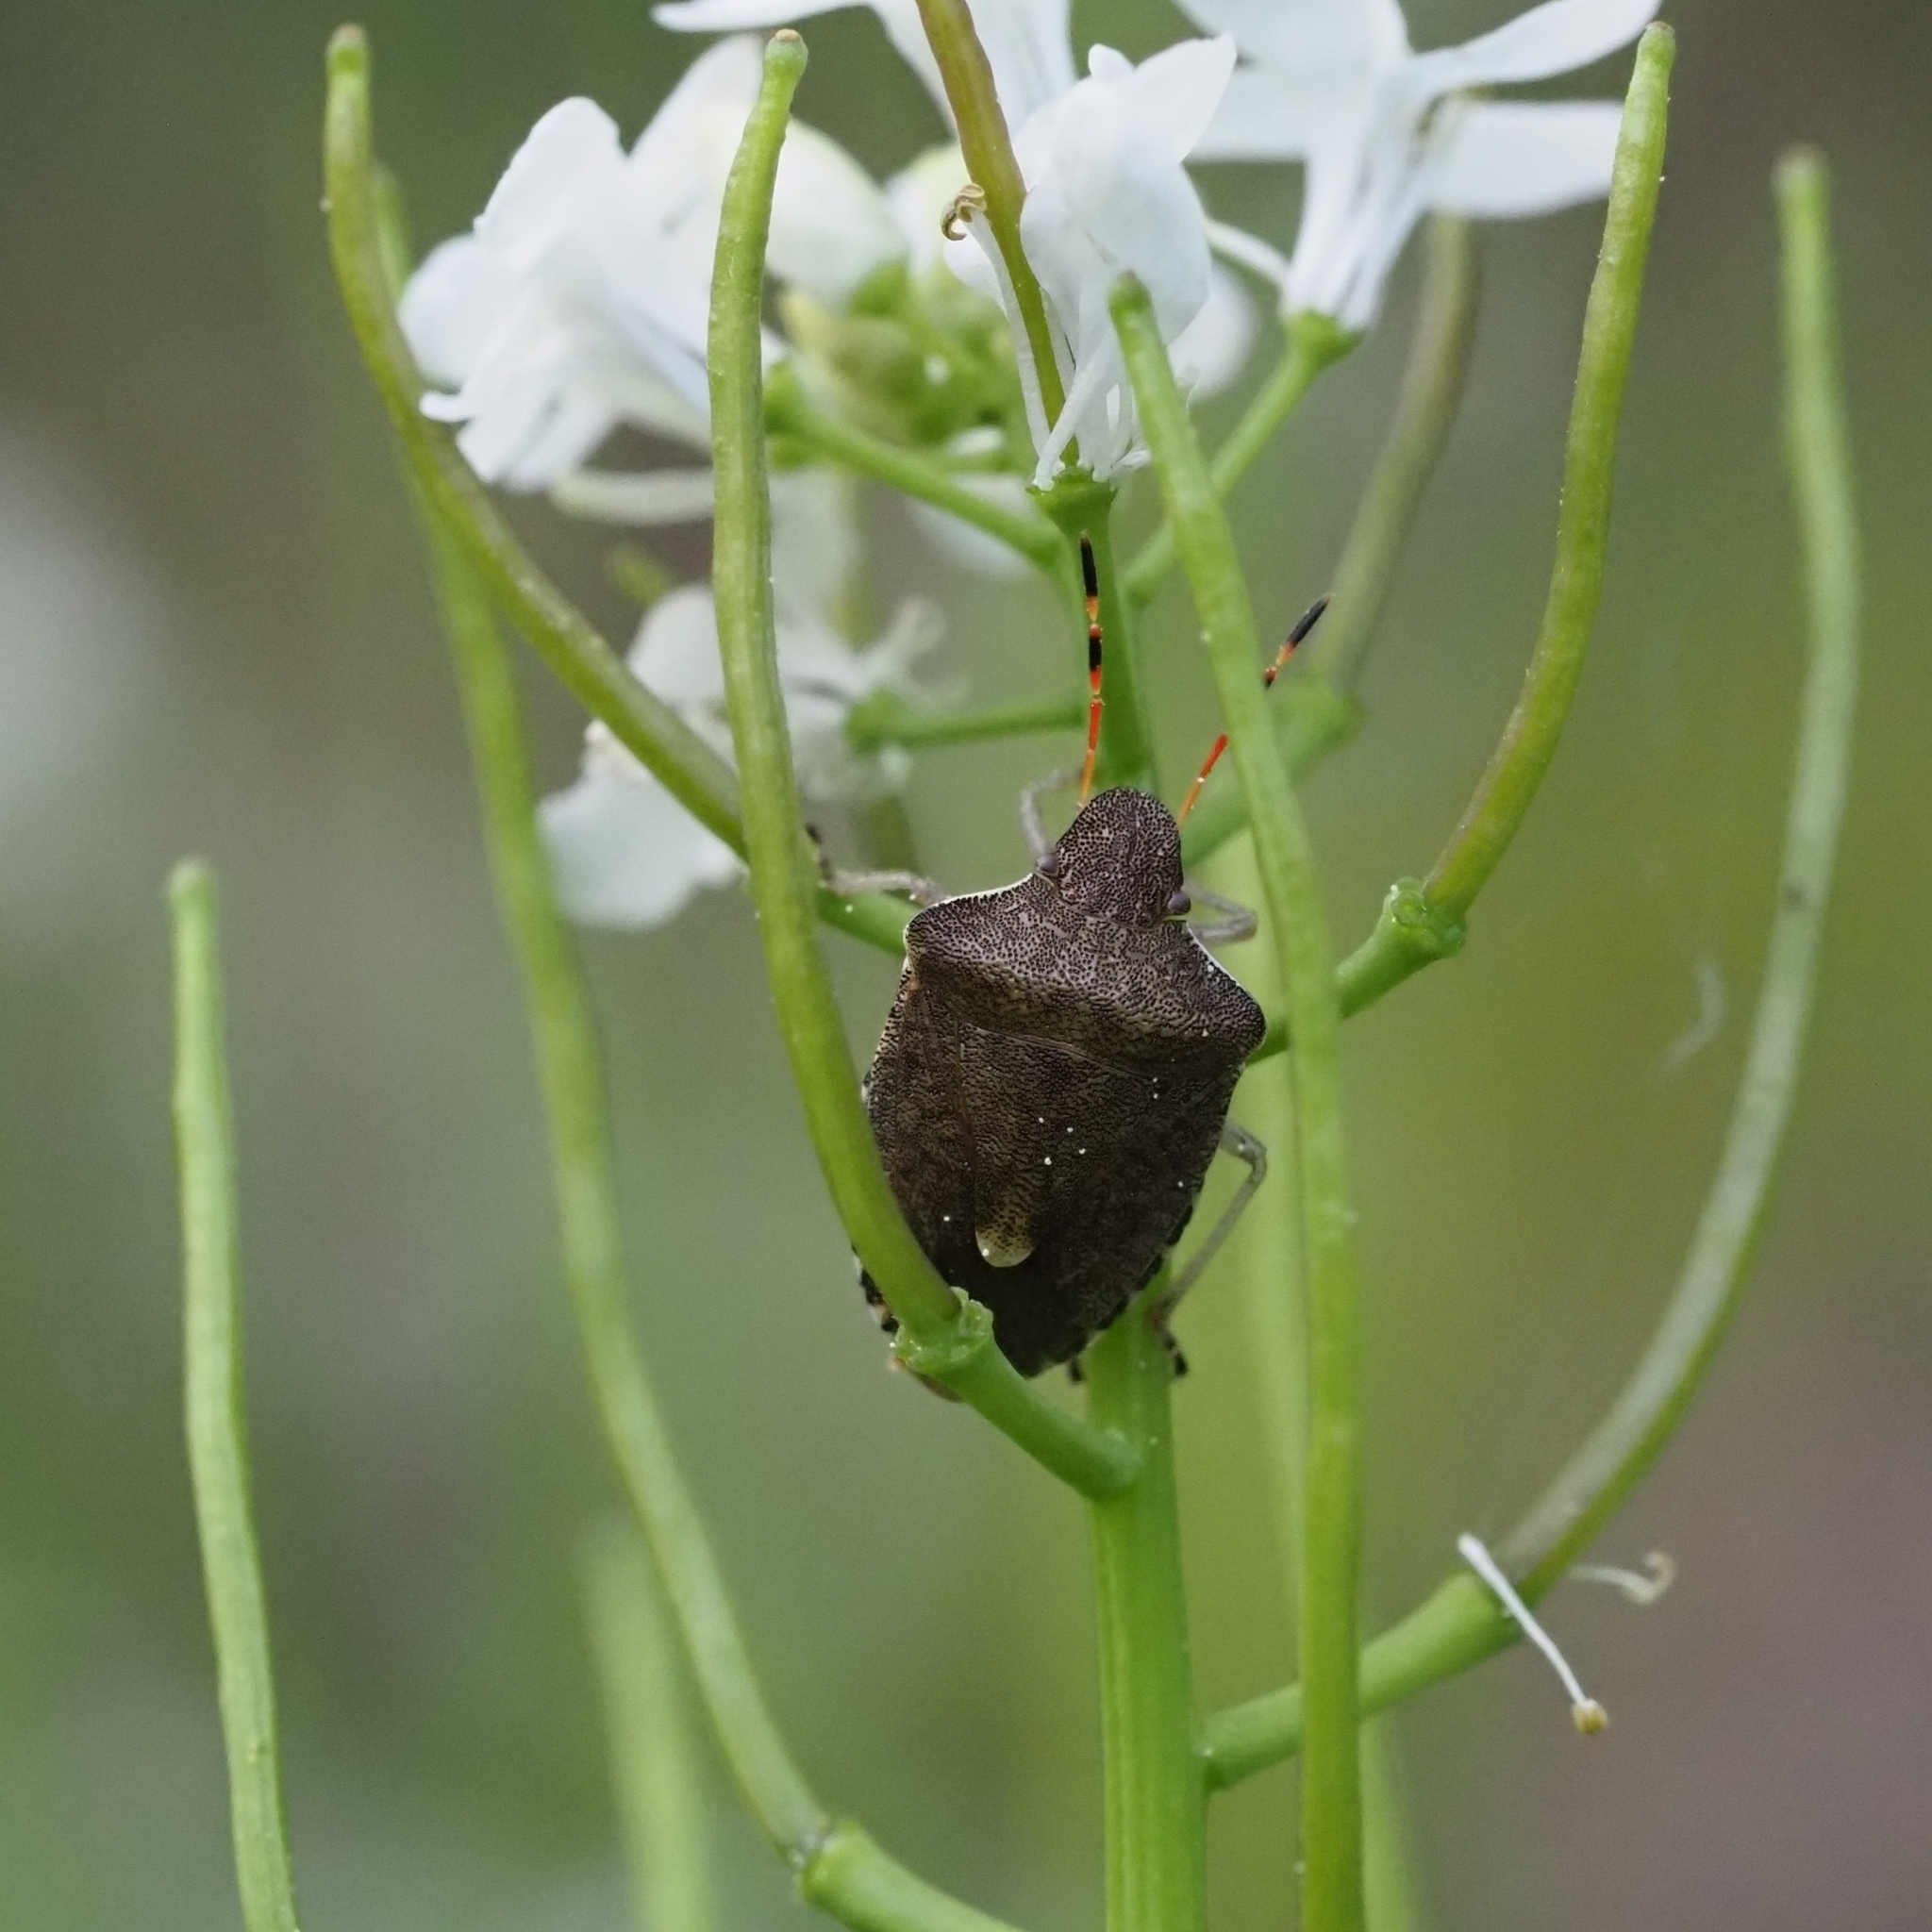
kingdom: Animalia
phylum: Arthropoda
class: Insecta
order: Hemiptera
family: Pentatomidae
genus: Holcostethus
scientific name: Holcostethus strictus
